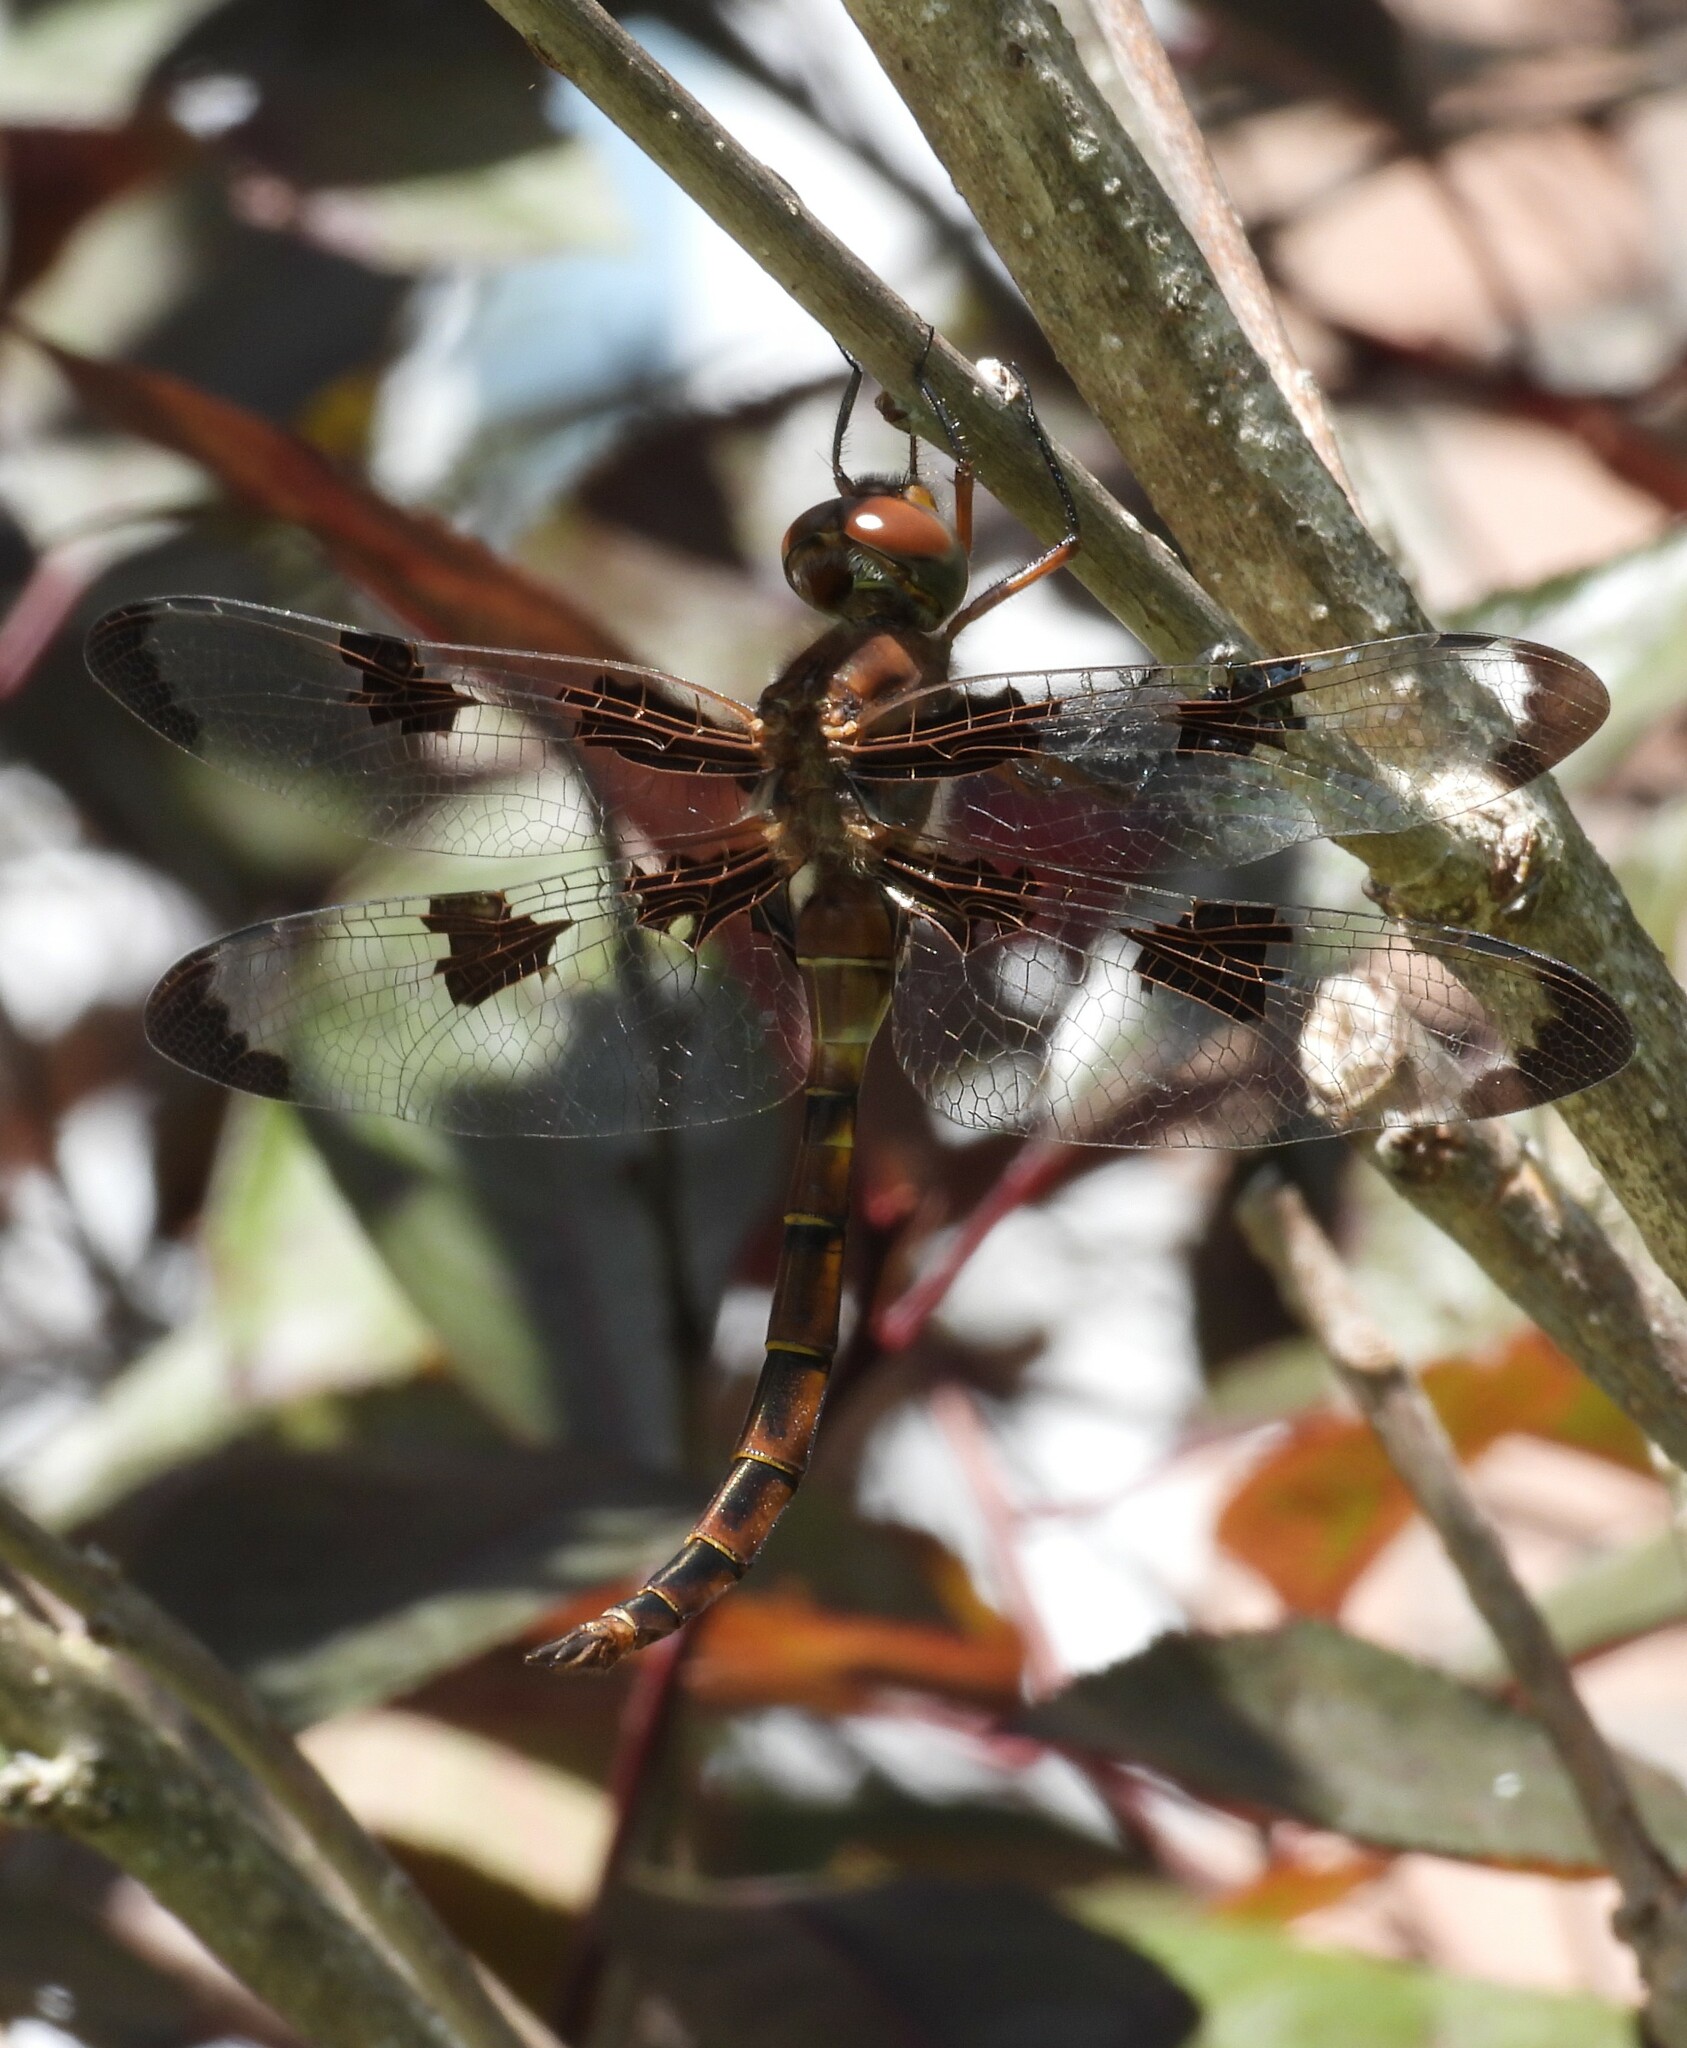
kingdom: Animalia
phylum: Arthropoda
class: Insecta
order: Odonata
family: Corduliidae
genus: Epitheca
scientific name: Epitheca princeps
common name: Prince baskettail
